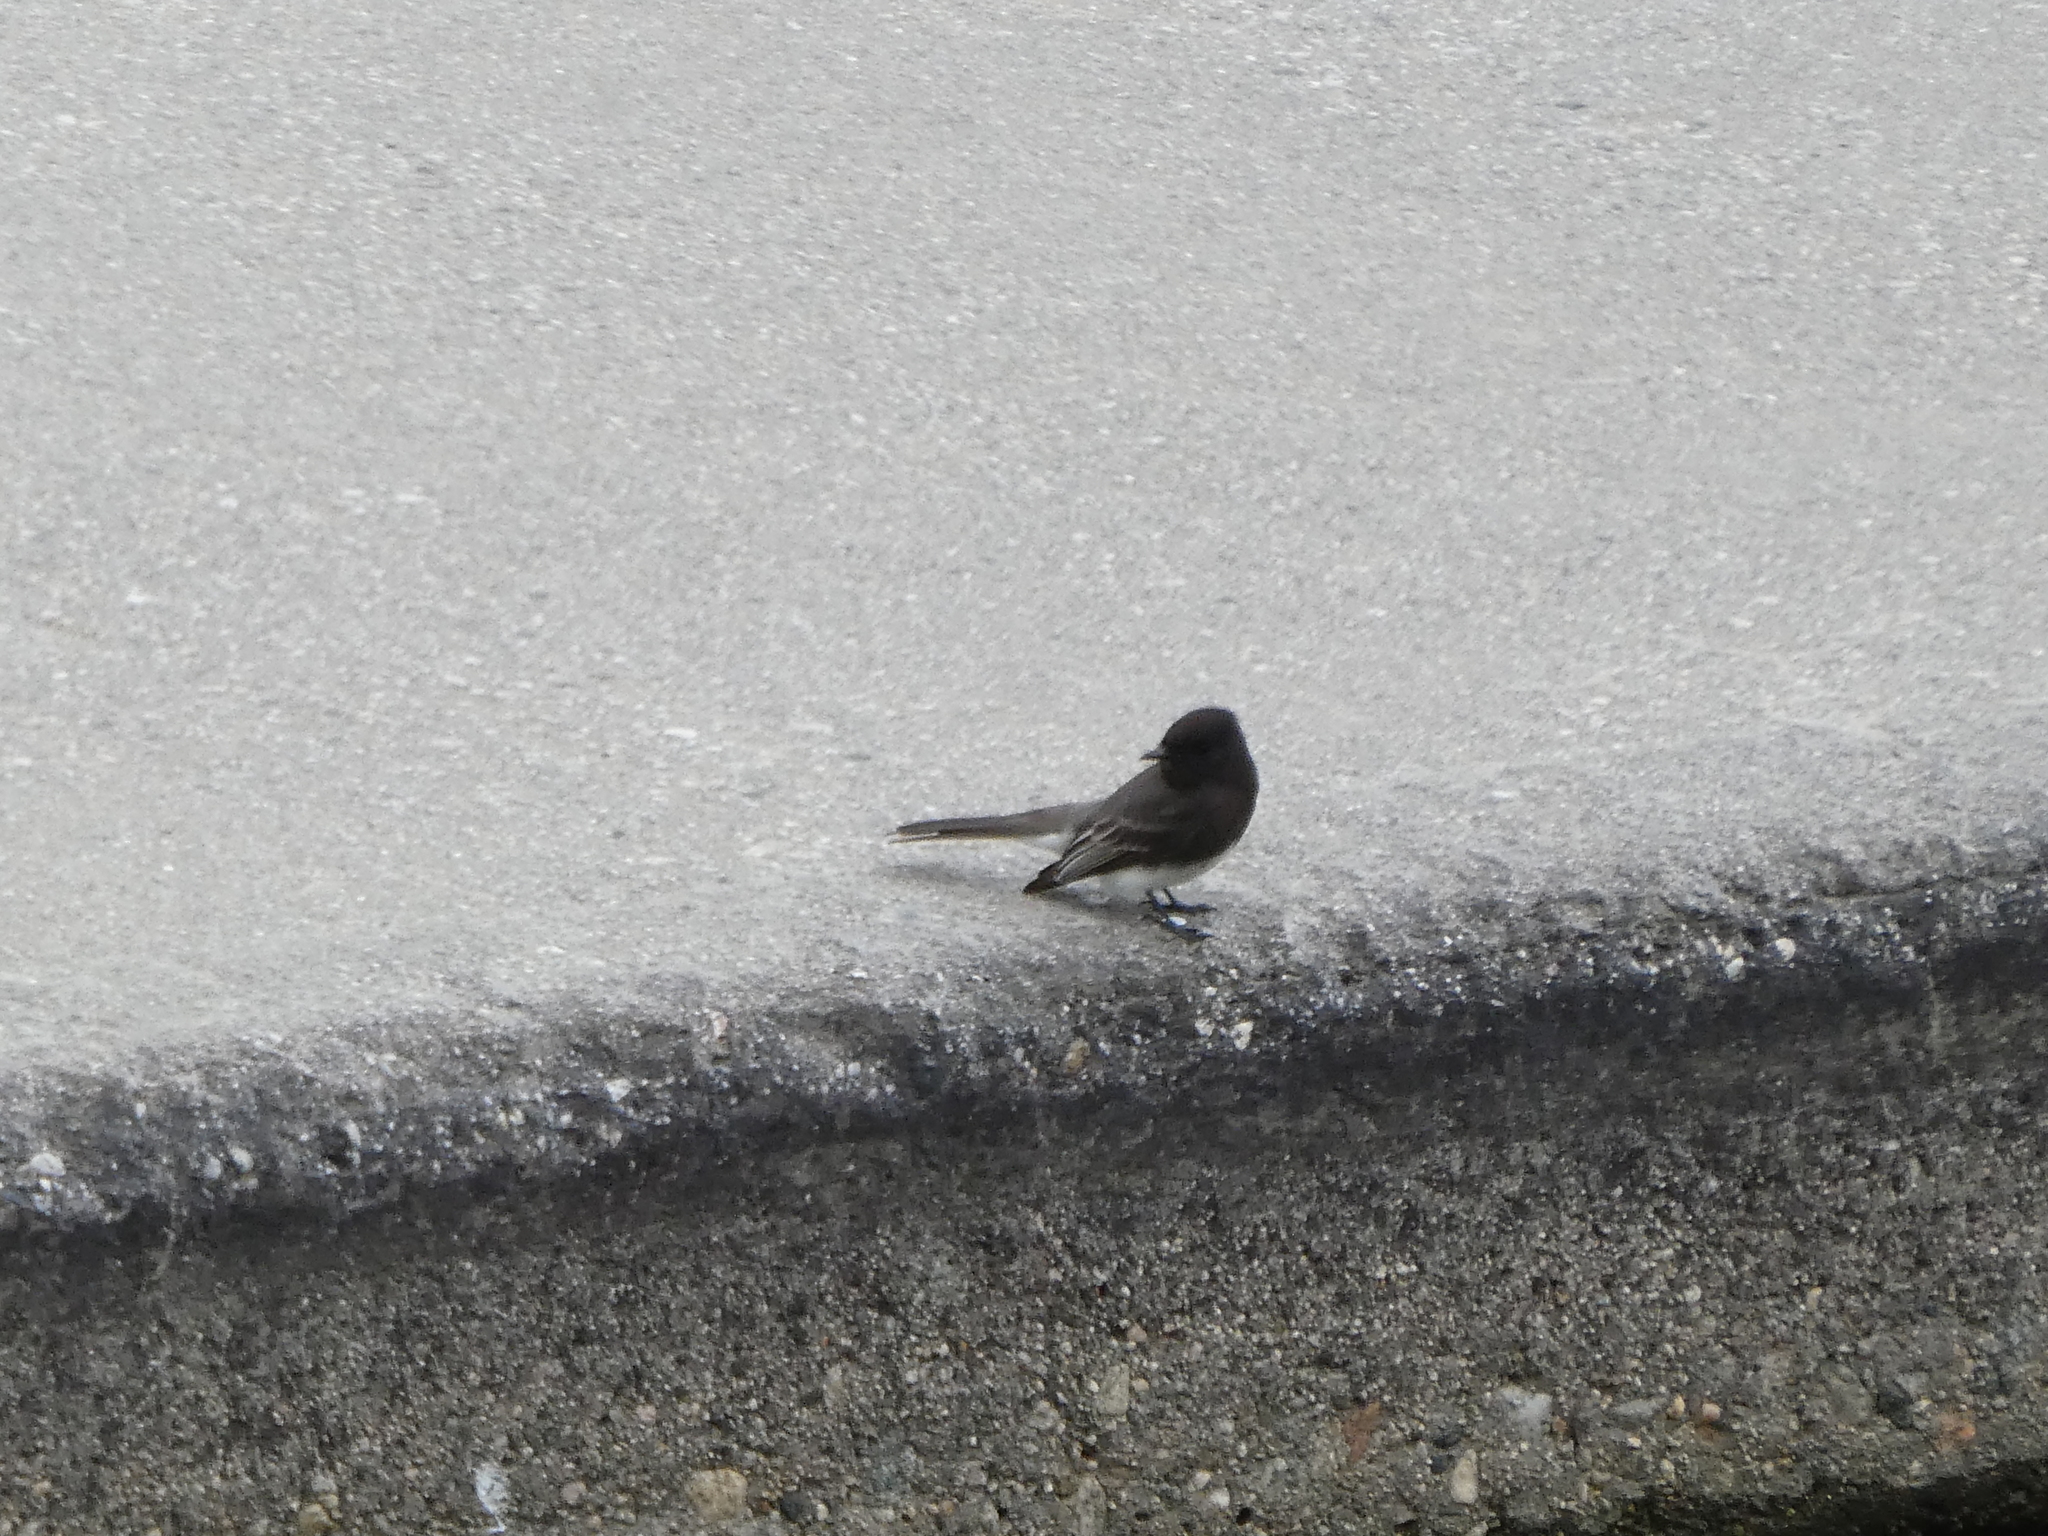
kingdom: Animalia
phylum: Chordata
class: Aves
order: Passeriformes
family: Tyrannidae
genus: Sayornis
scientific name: Sayornis nigricans
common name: Black phoebe
